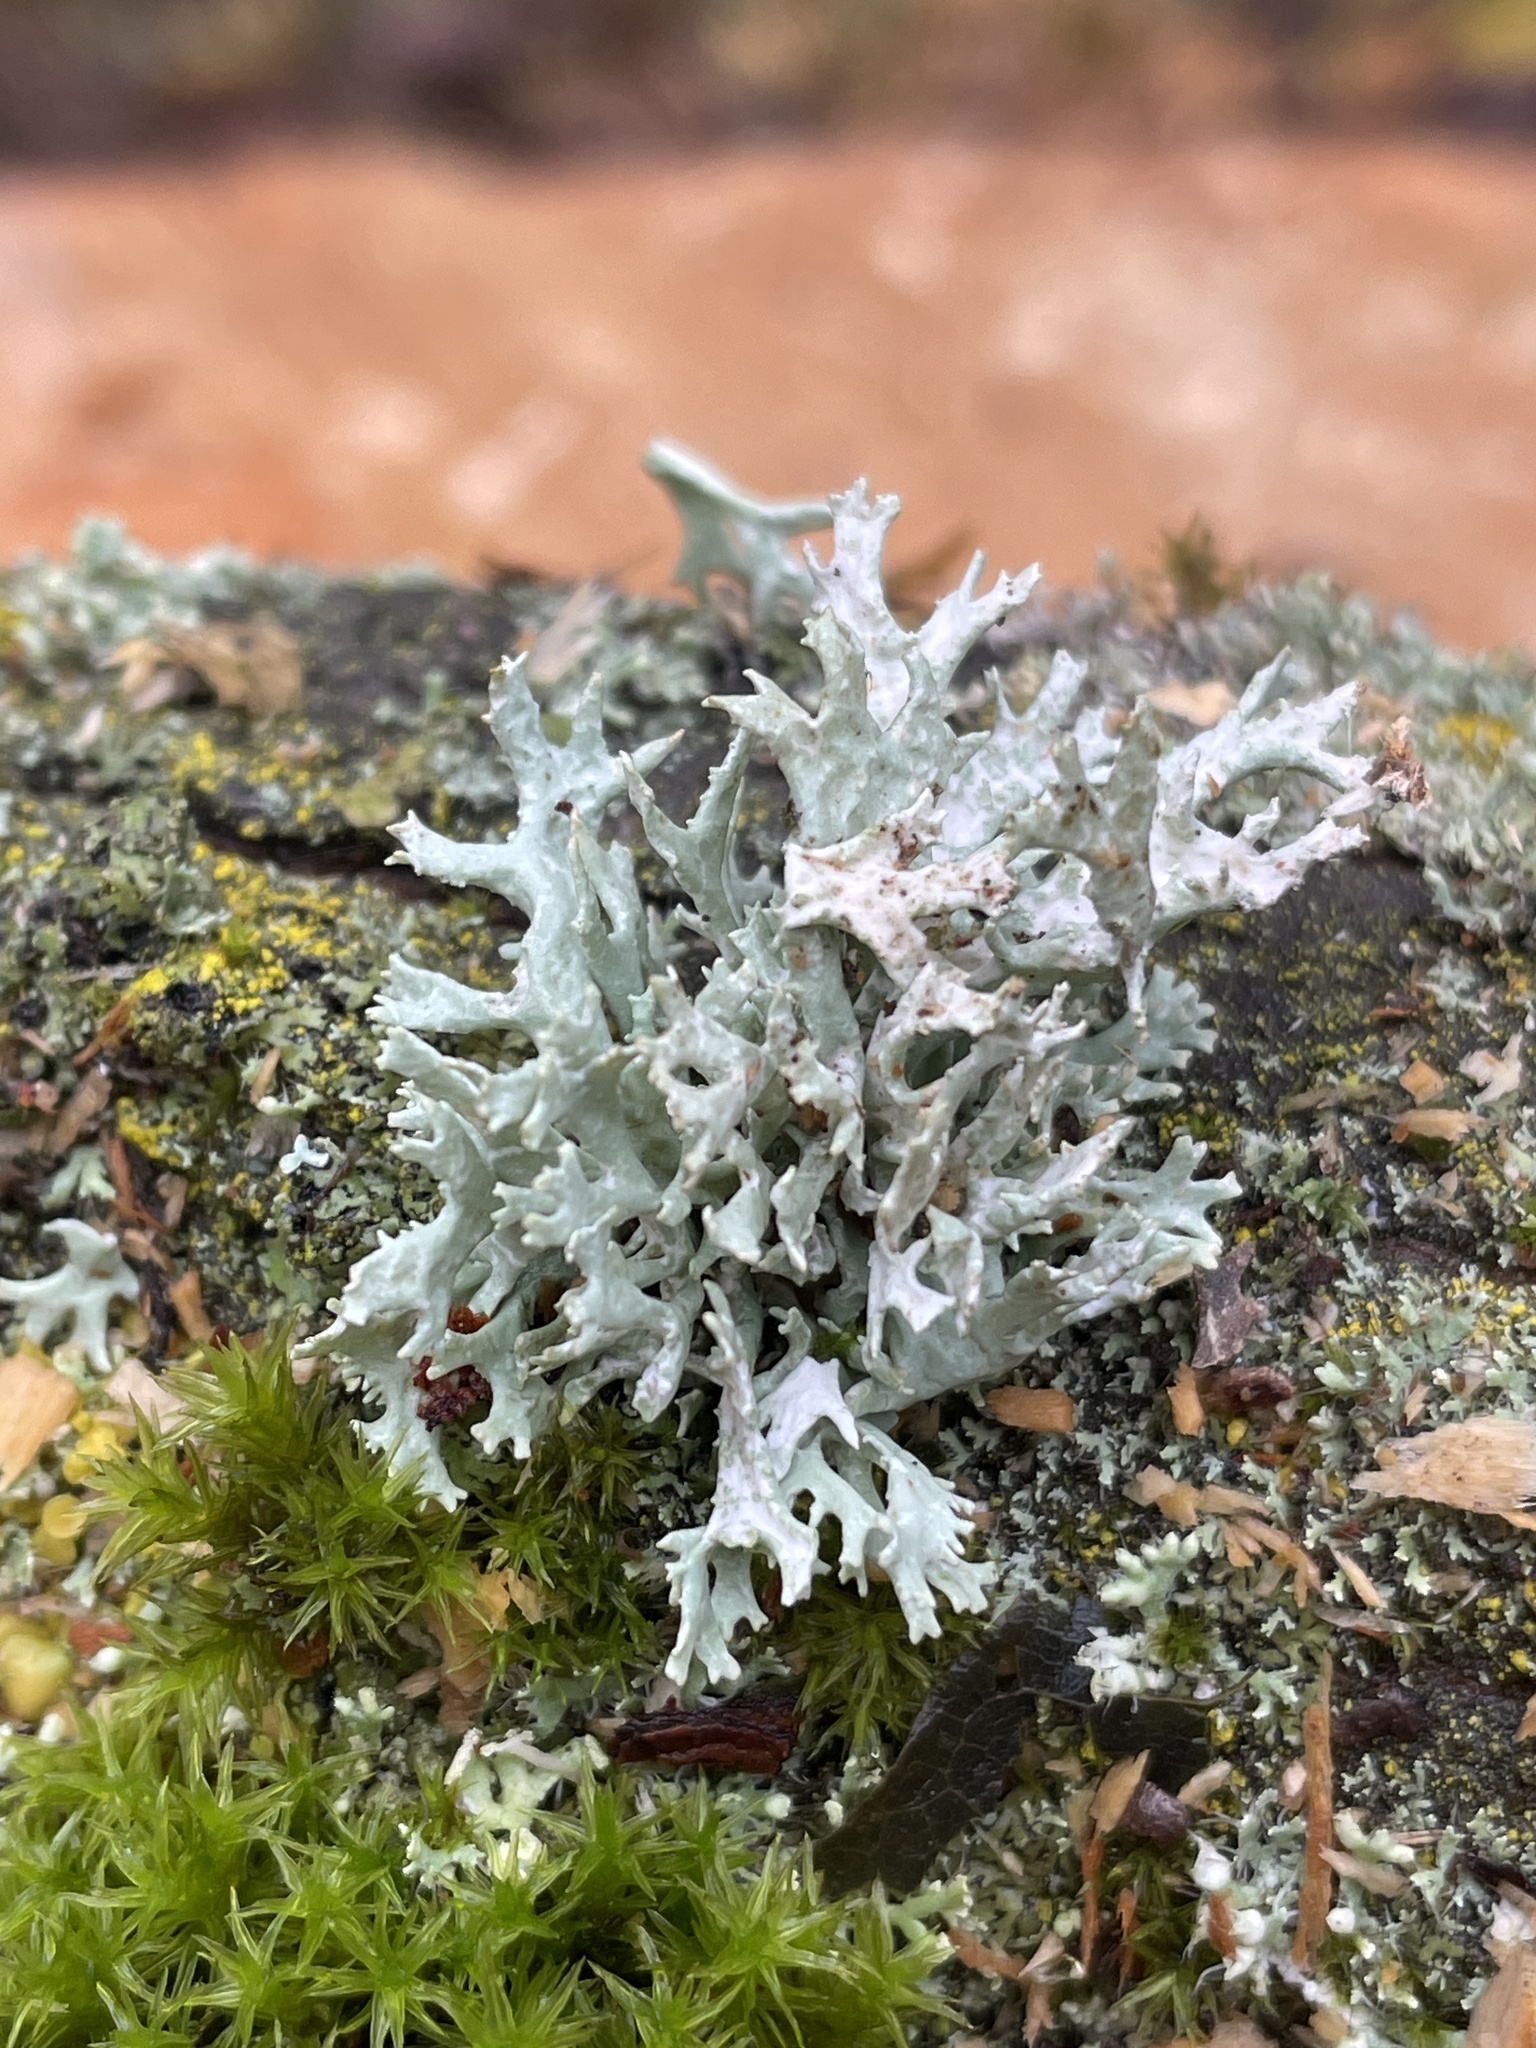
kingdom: Fungi
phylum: Ascomycota
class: Lecanoromycetes
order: Lecanorales
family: Parmeliaceae
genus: Evernia
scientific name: Evernia prunastri
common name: Oak moss
